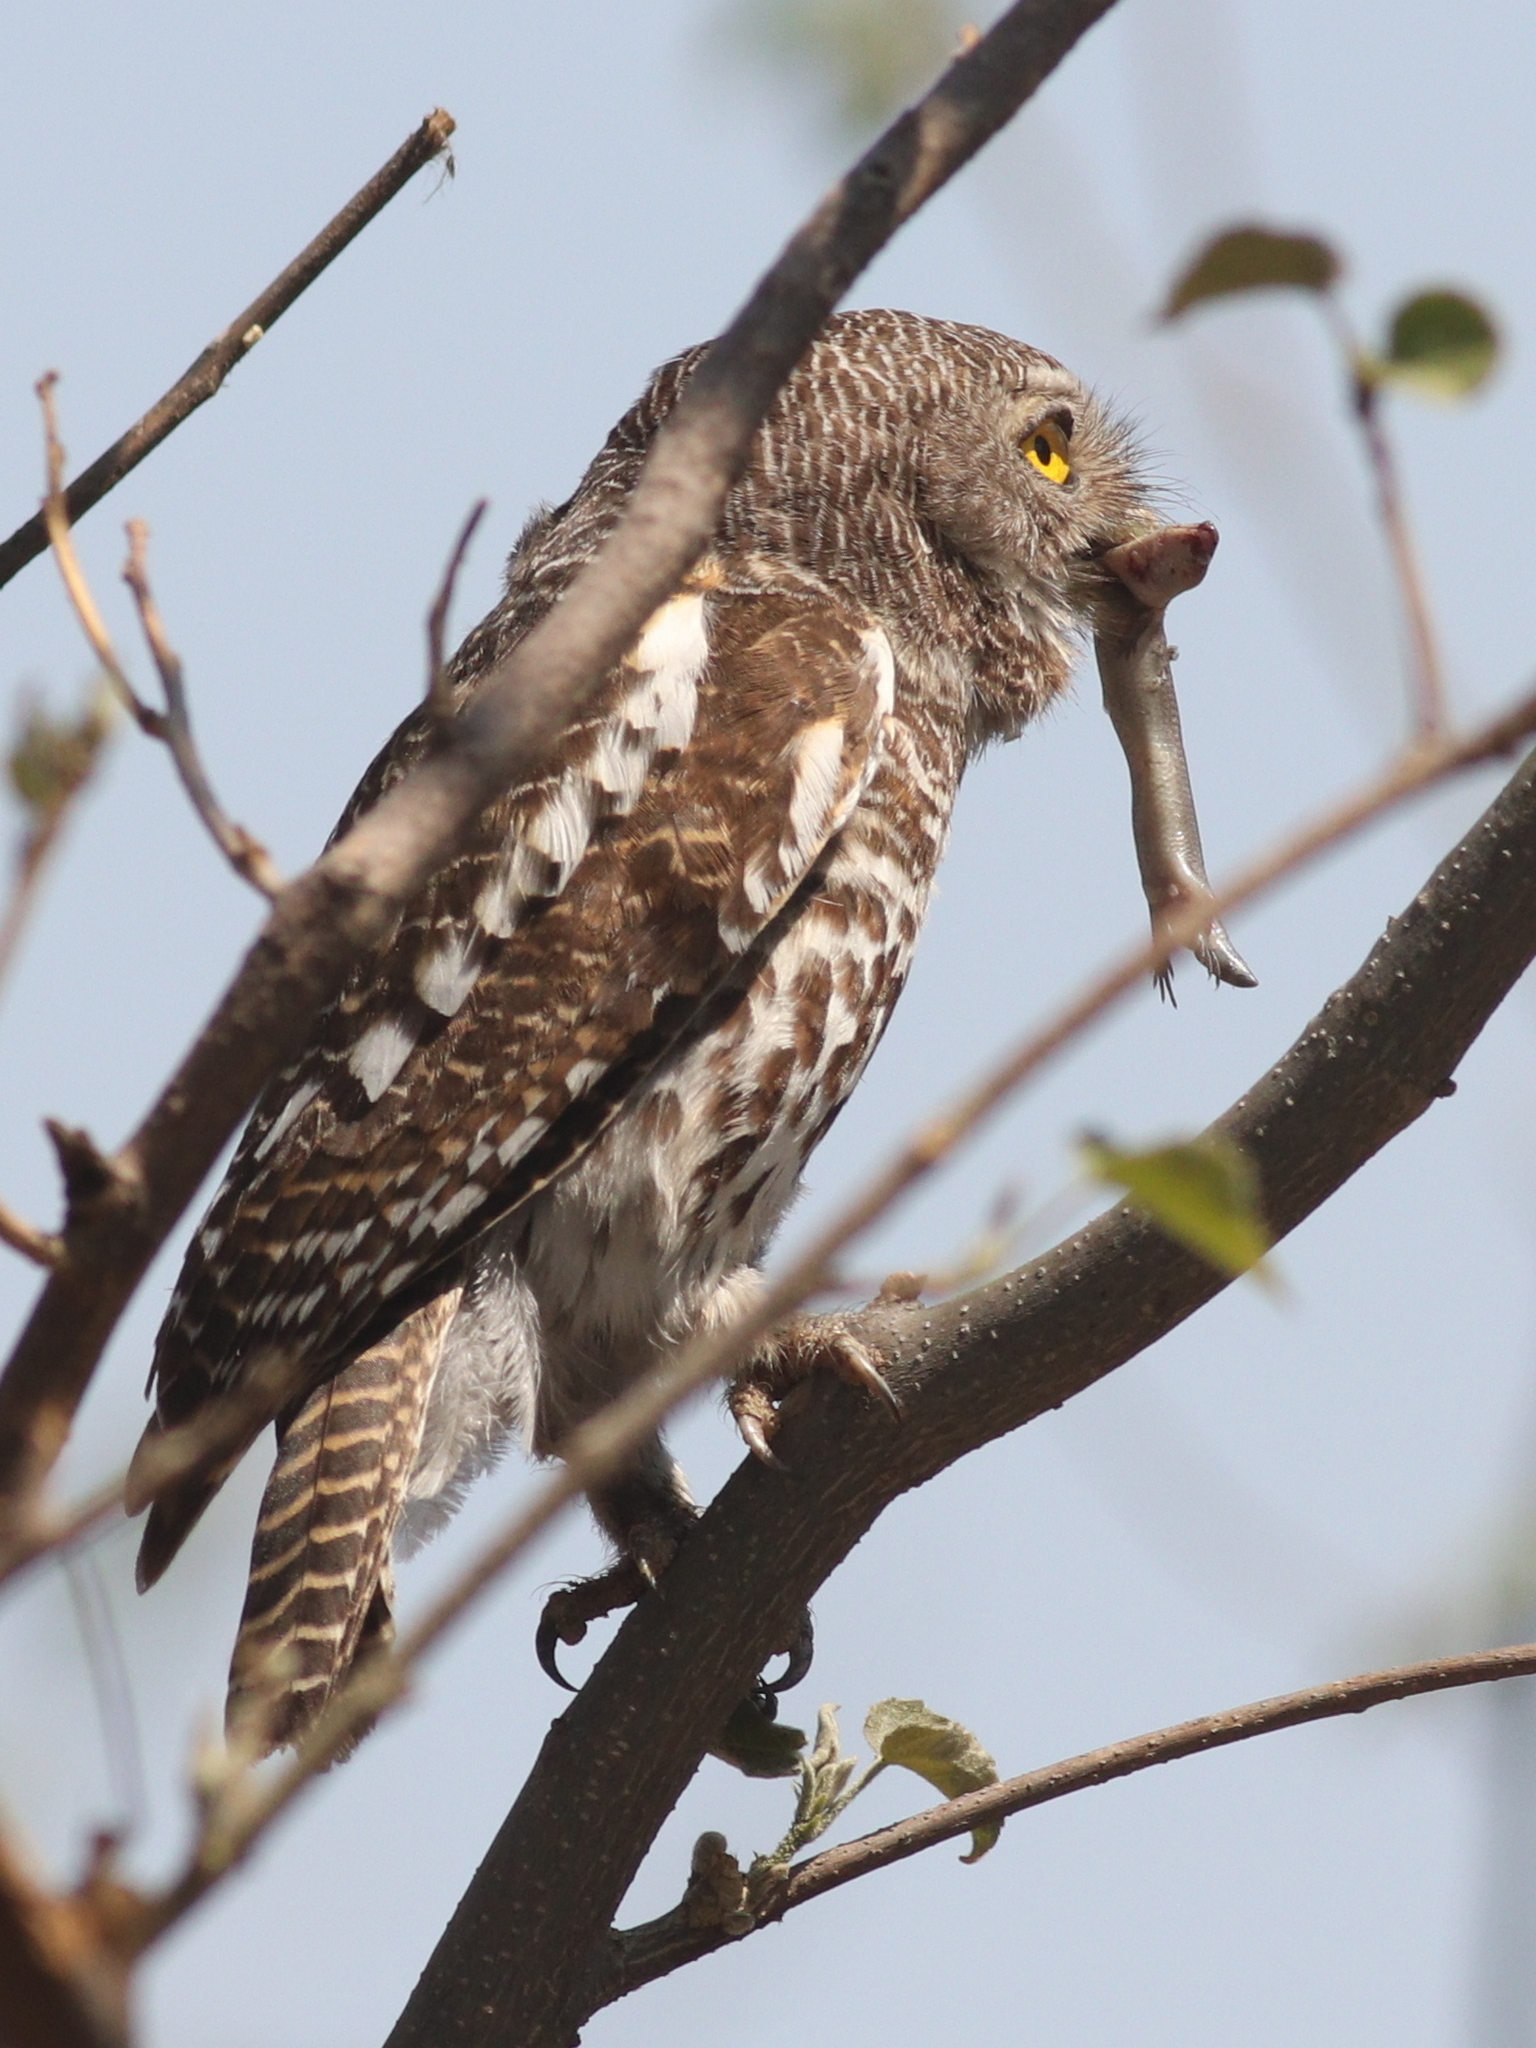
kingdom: Animalia
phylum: Chordata
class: Aves
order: Strigiformes
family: Strigidae
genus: Glaucidium
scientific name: Glaucidium capense
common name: African barred owlet
